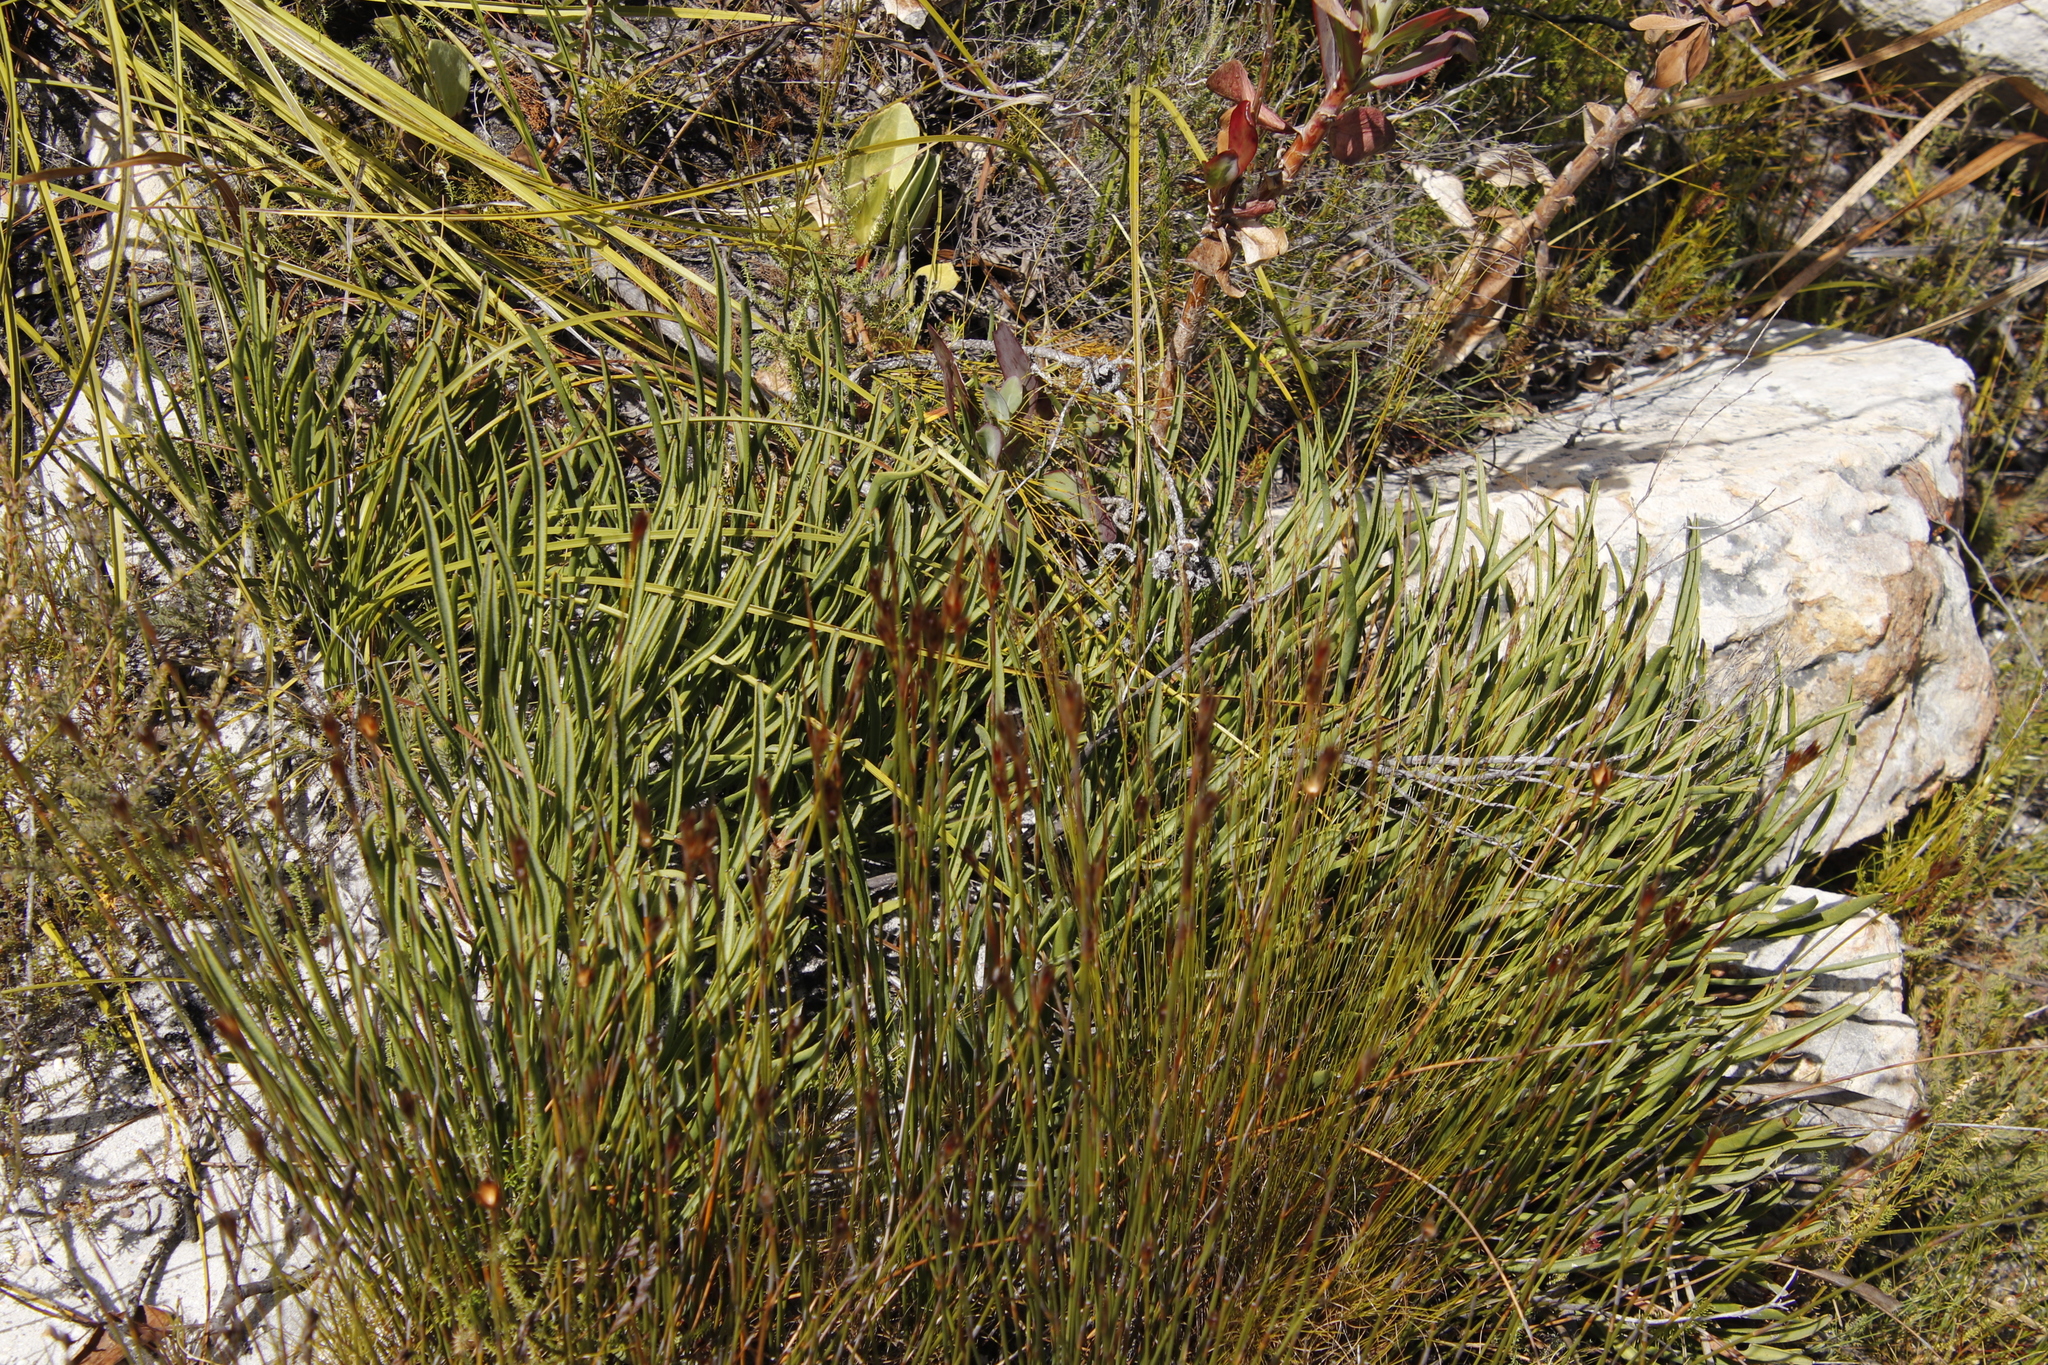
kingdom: Plantae
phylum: Tracheophyta
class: Magnoliopsida
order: Proteales
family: Proteaceae
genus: Protea
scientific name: Protea scabra
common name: Sandpaper-leaf sugarbush
